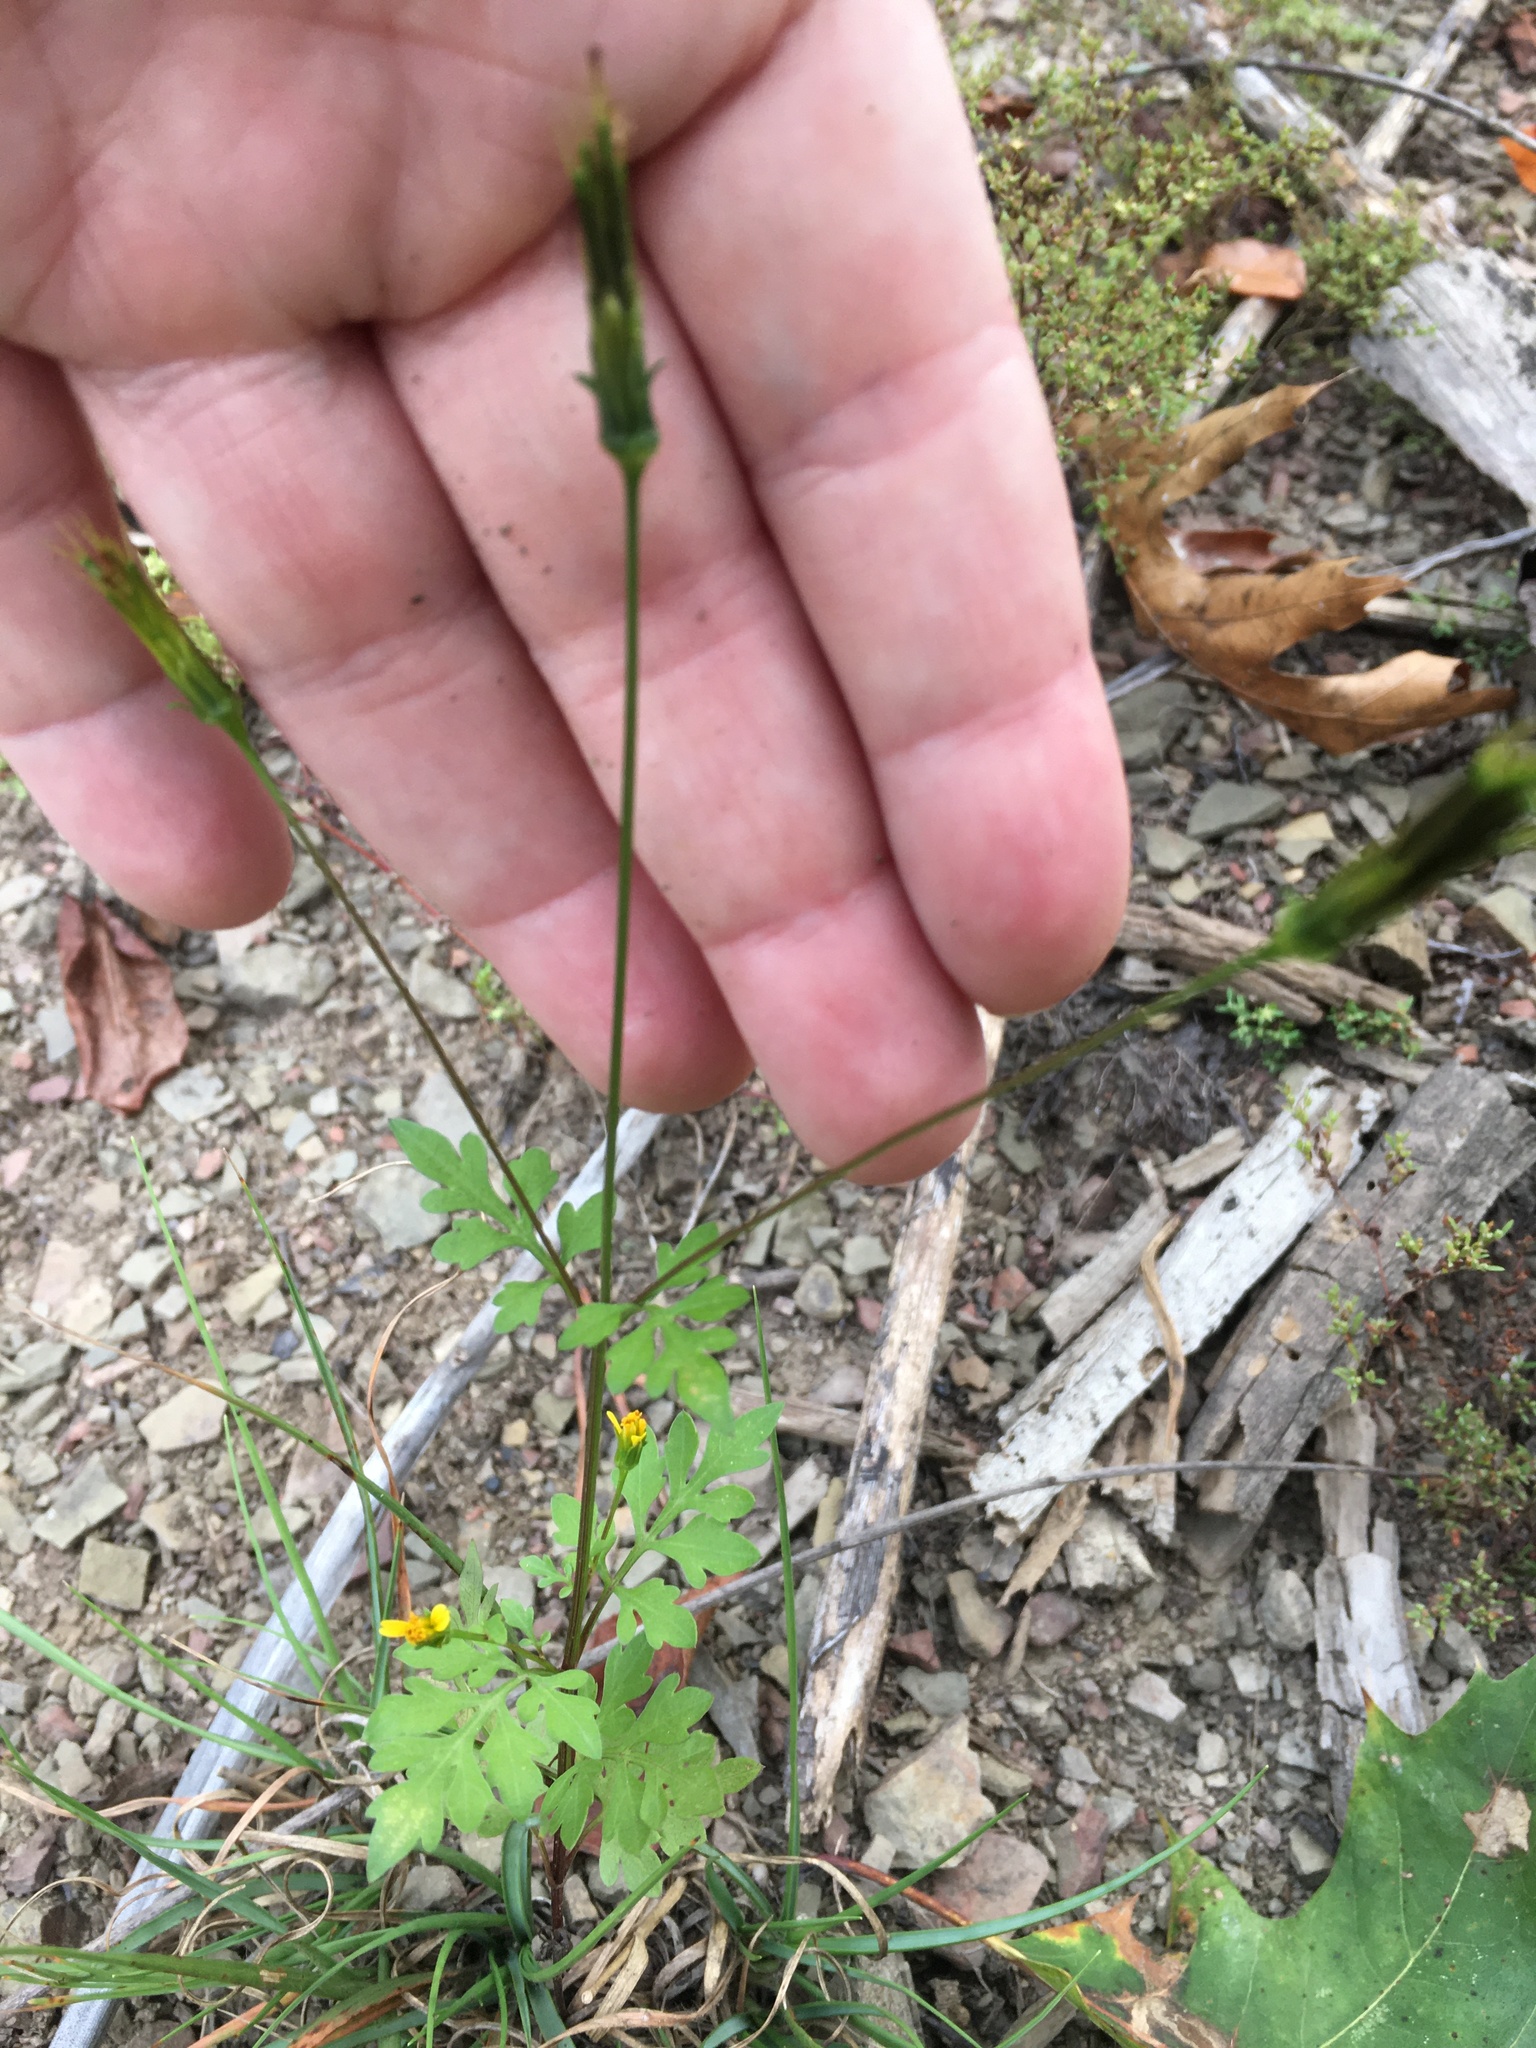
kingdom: Plantae
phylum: Tracheophyta
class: Magnoliopsida
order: Asterales
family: Asteraceae
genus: Bidens
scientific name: Bidens bipinnata
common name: Spanish-needles
